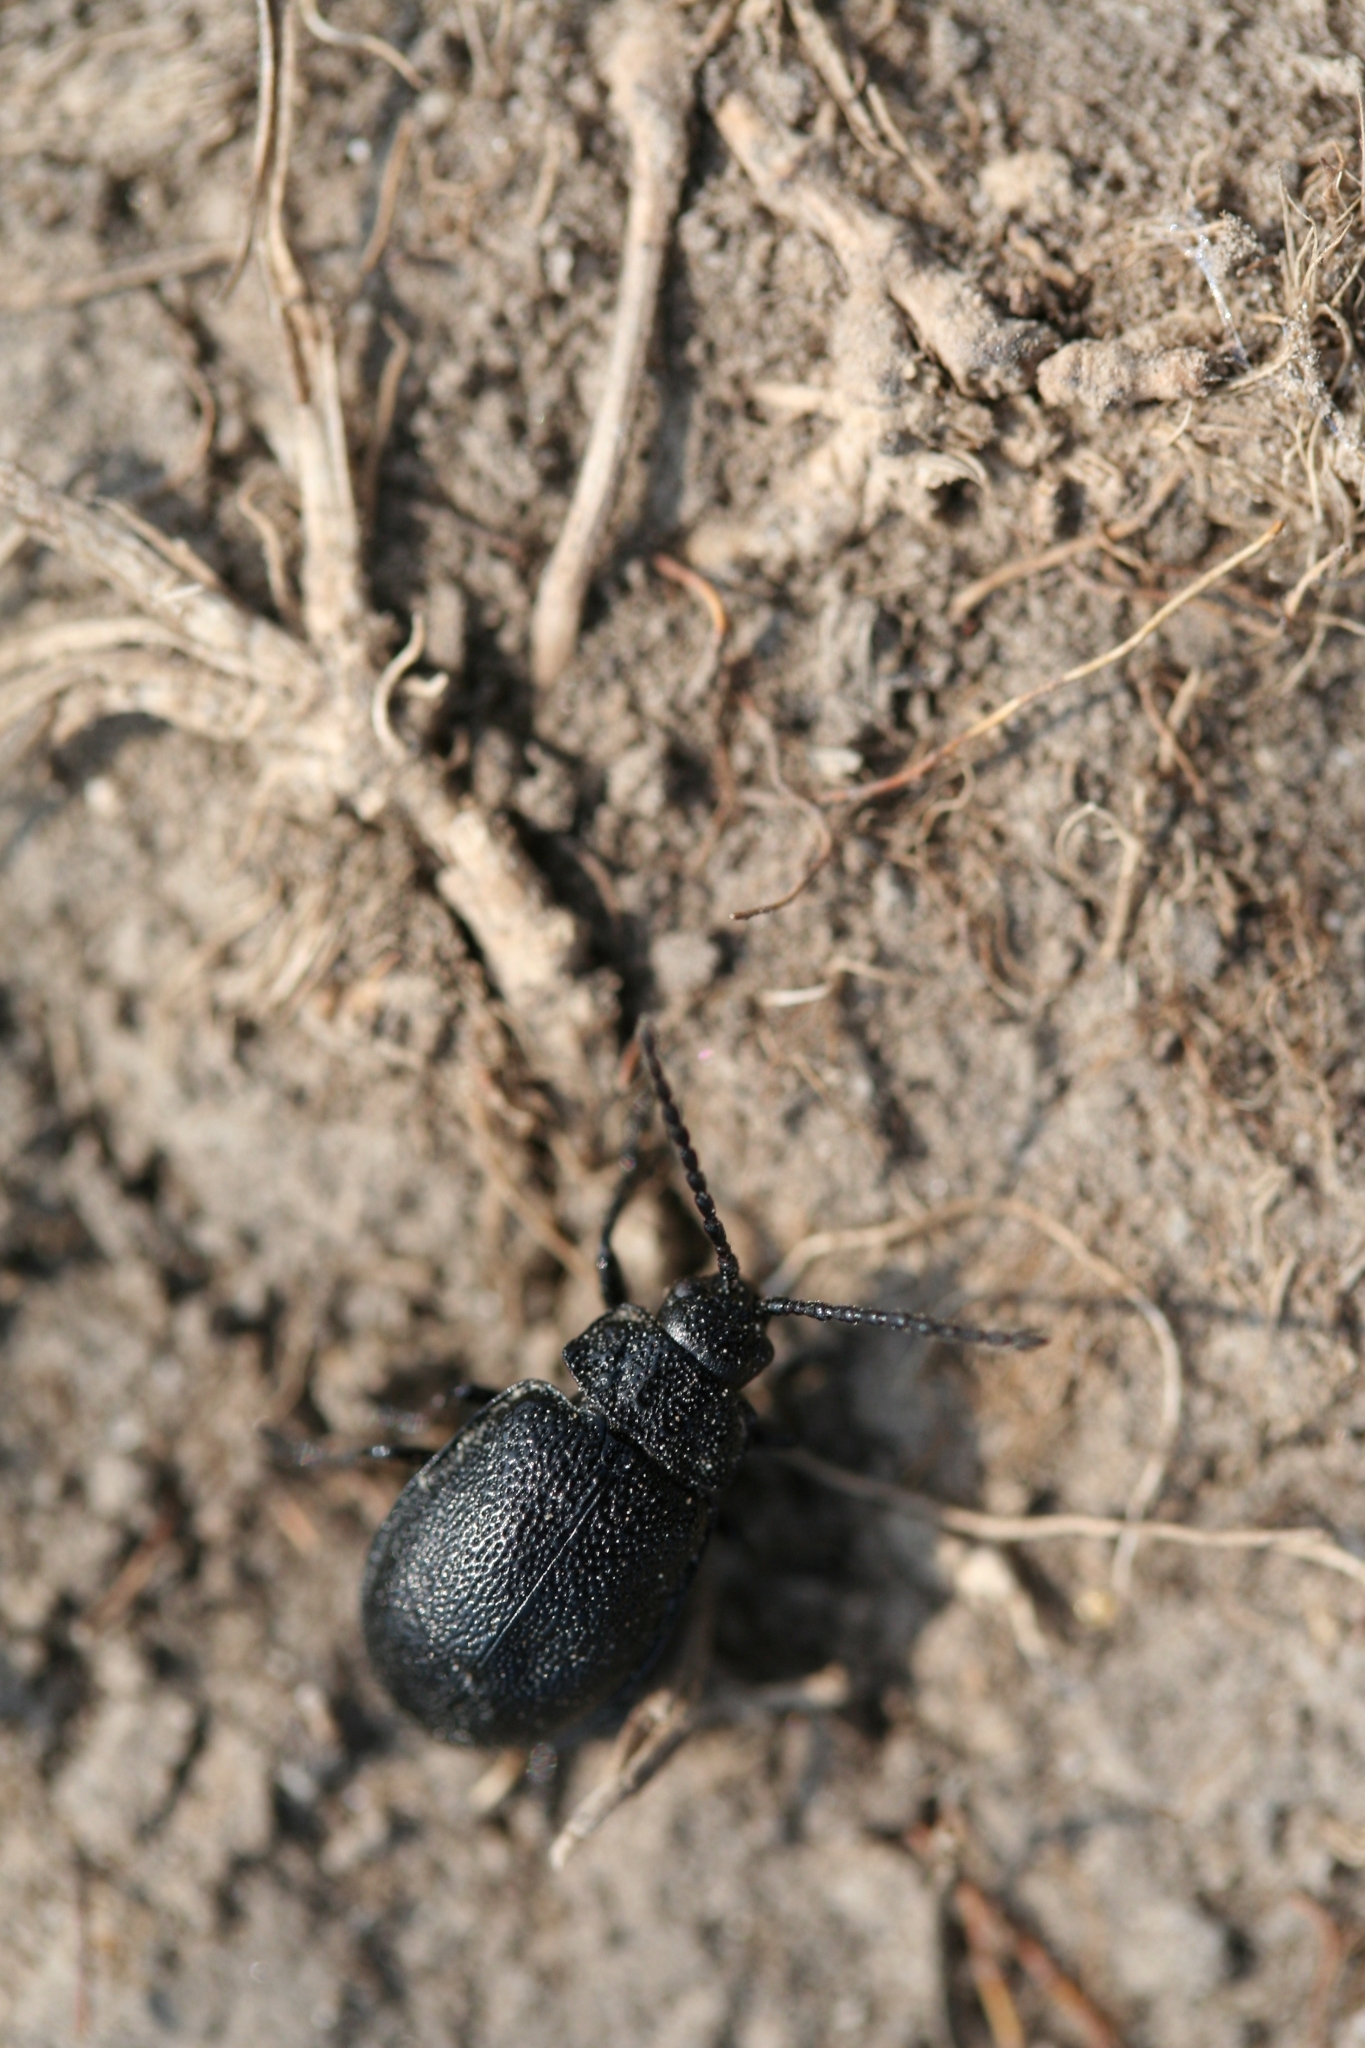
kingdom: Animalia
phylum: Arthropoda
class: Insecta
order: Coleoptera
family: Chrysomelidae
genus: Galeruca
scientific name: Galeruca tanaceti
